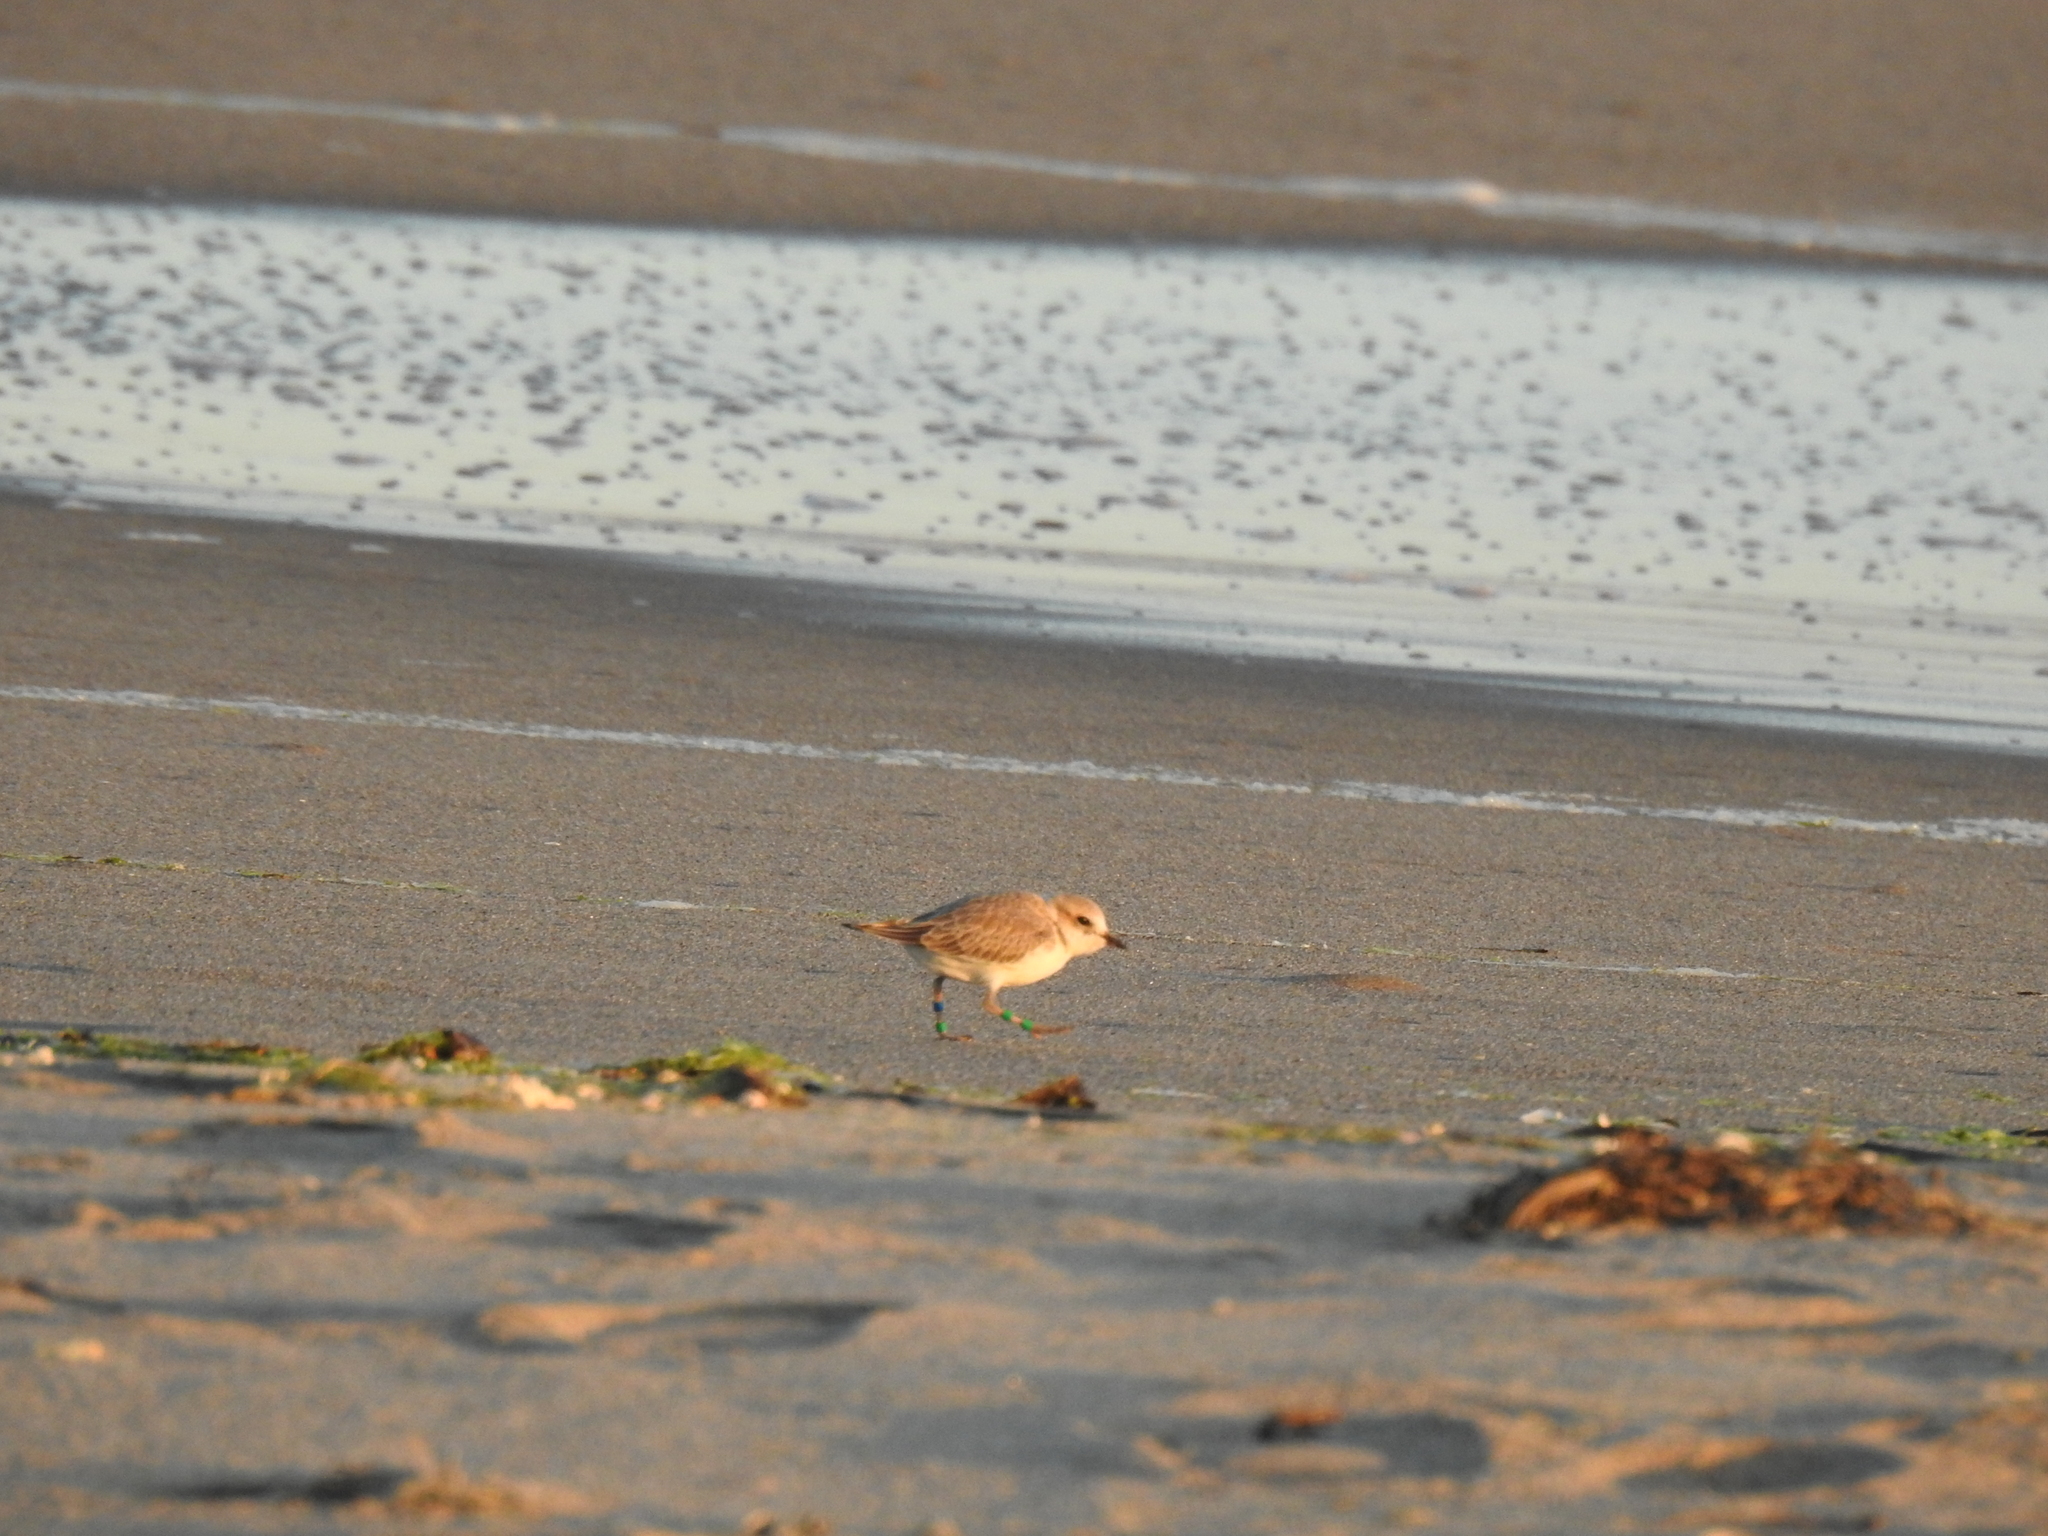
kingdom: Animalia
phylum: Chordata
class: Aves
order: Charadriiformes
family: Charadriidae
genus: Anarhynchus
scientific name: Anarhynchus
